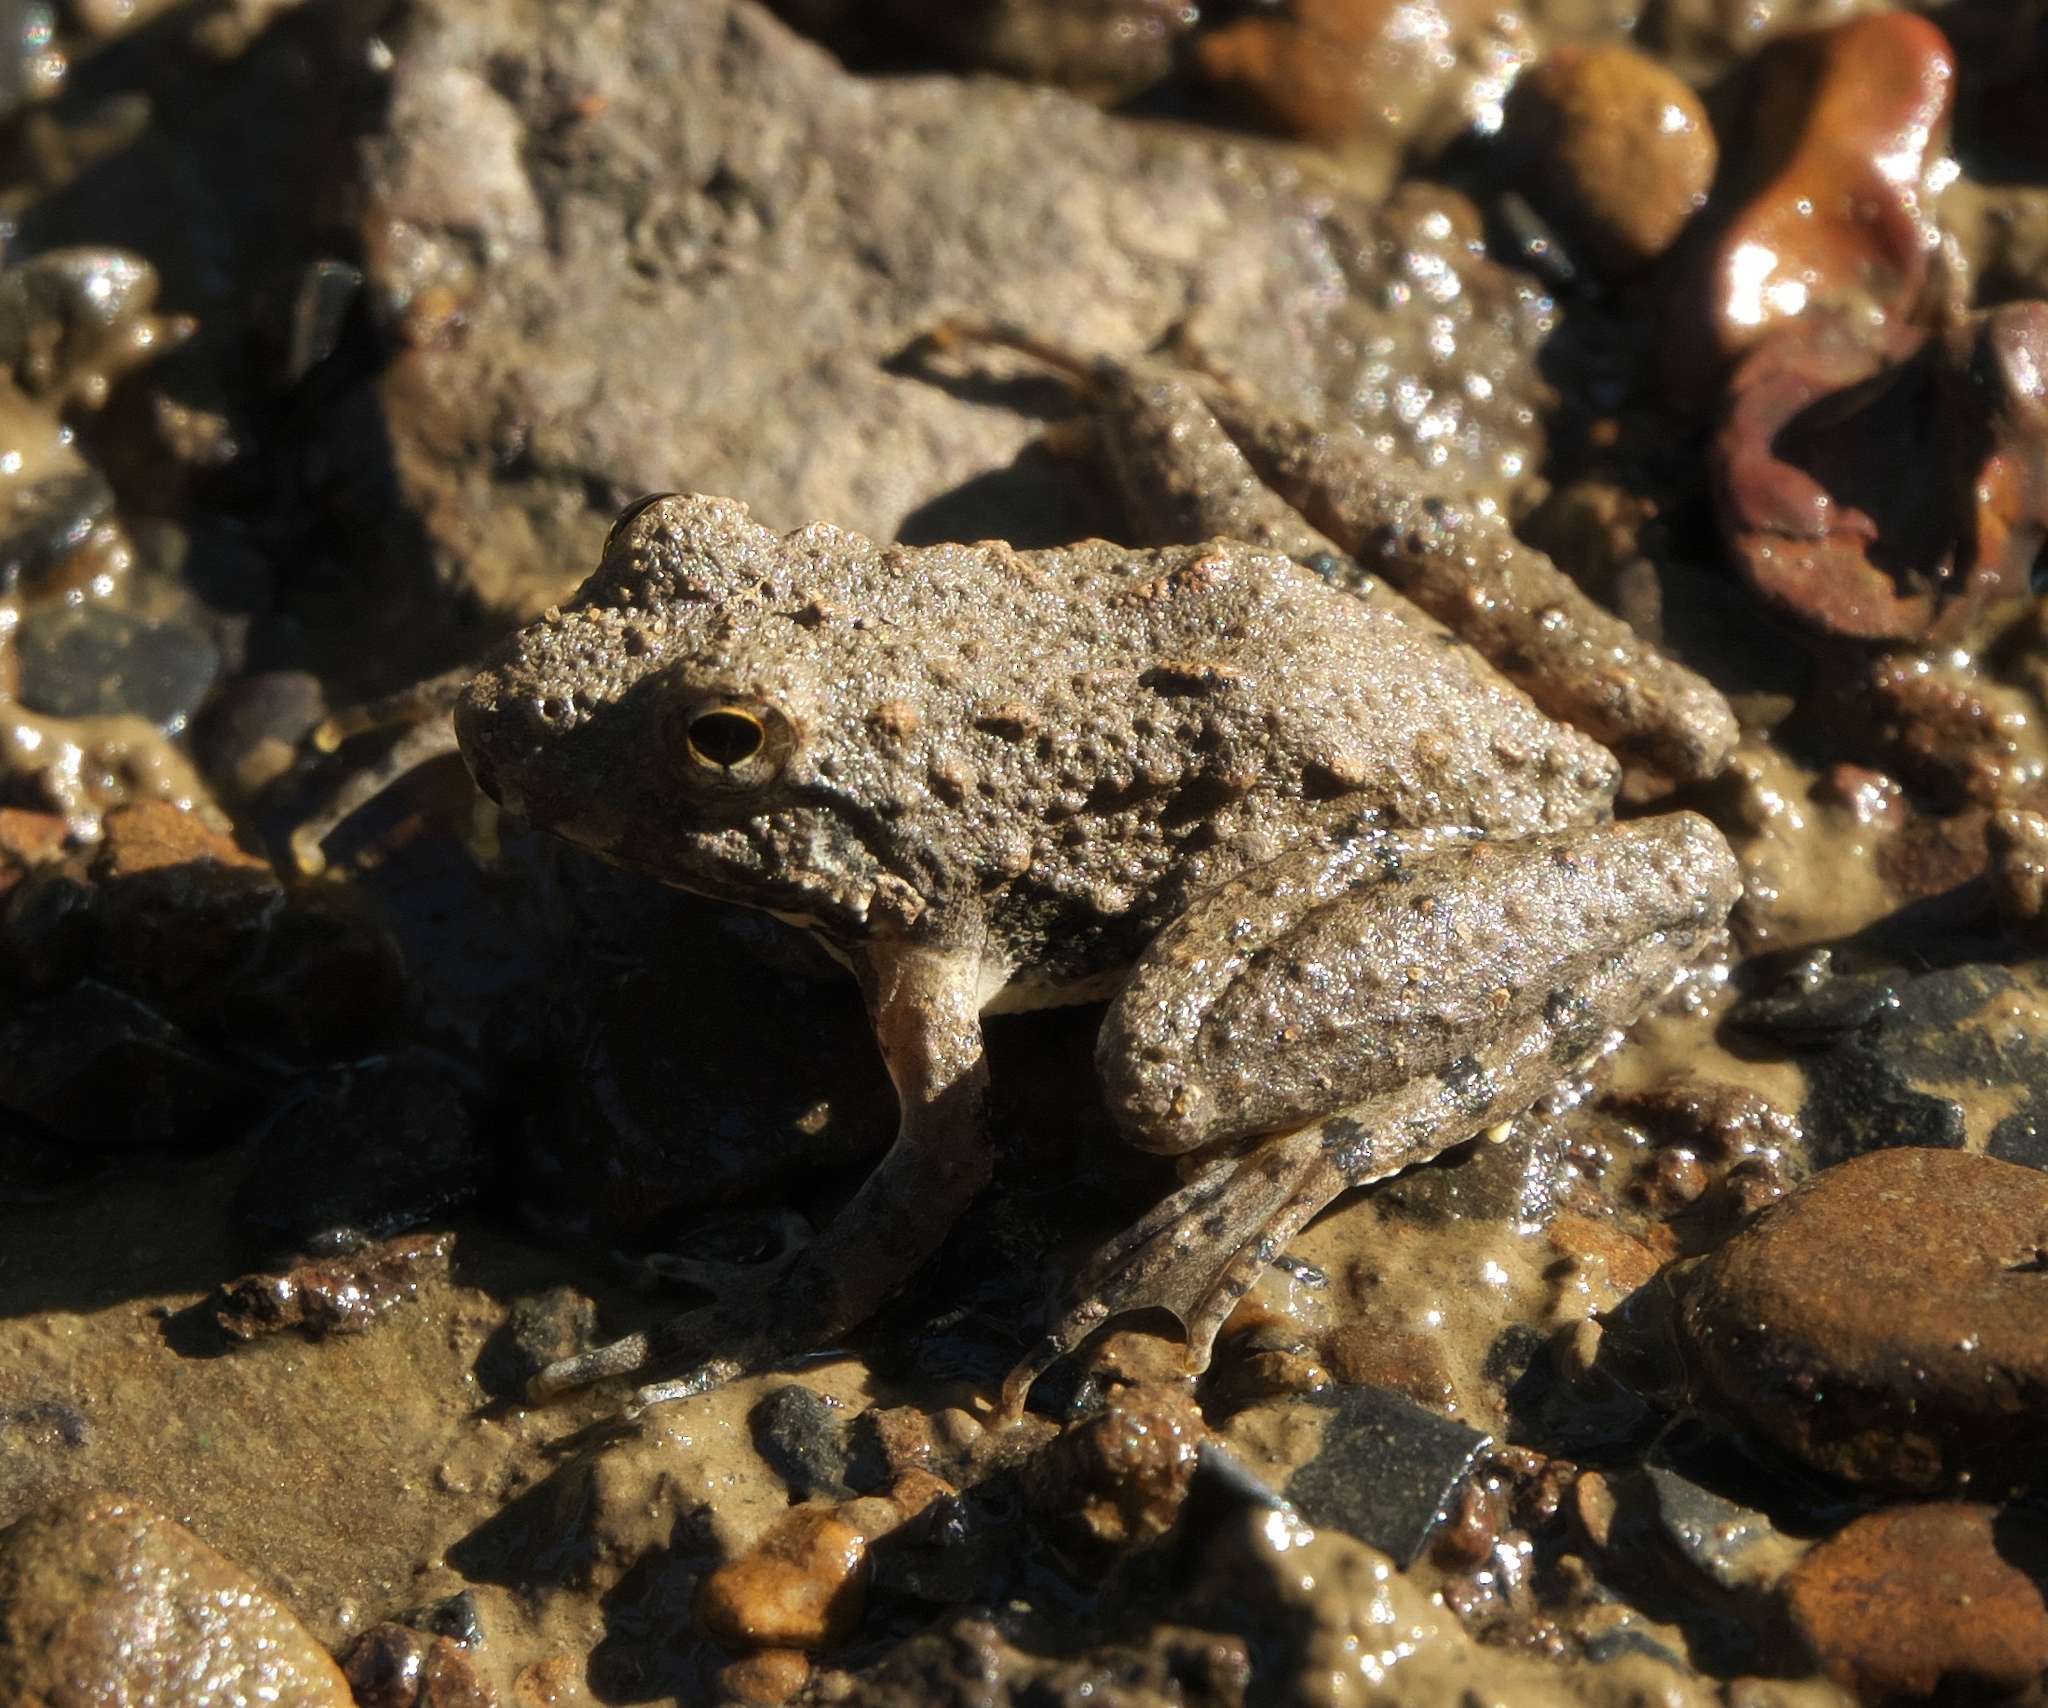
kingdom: Animalia
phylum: Chordata
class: Amphibia
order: Anura
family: Hylidae
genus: Acris
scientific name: Acris blanchardi
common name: Blanchard's cricket frog
